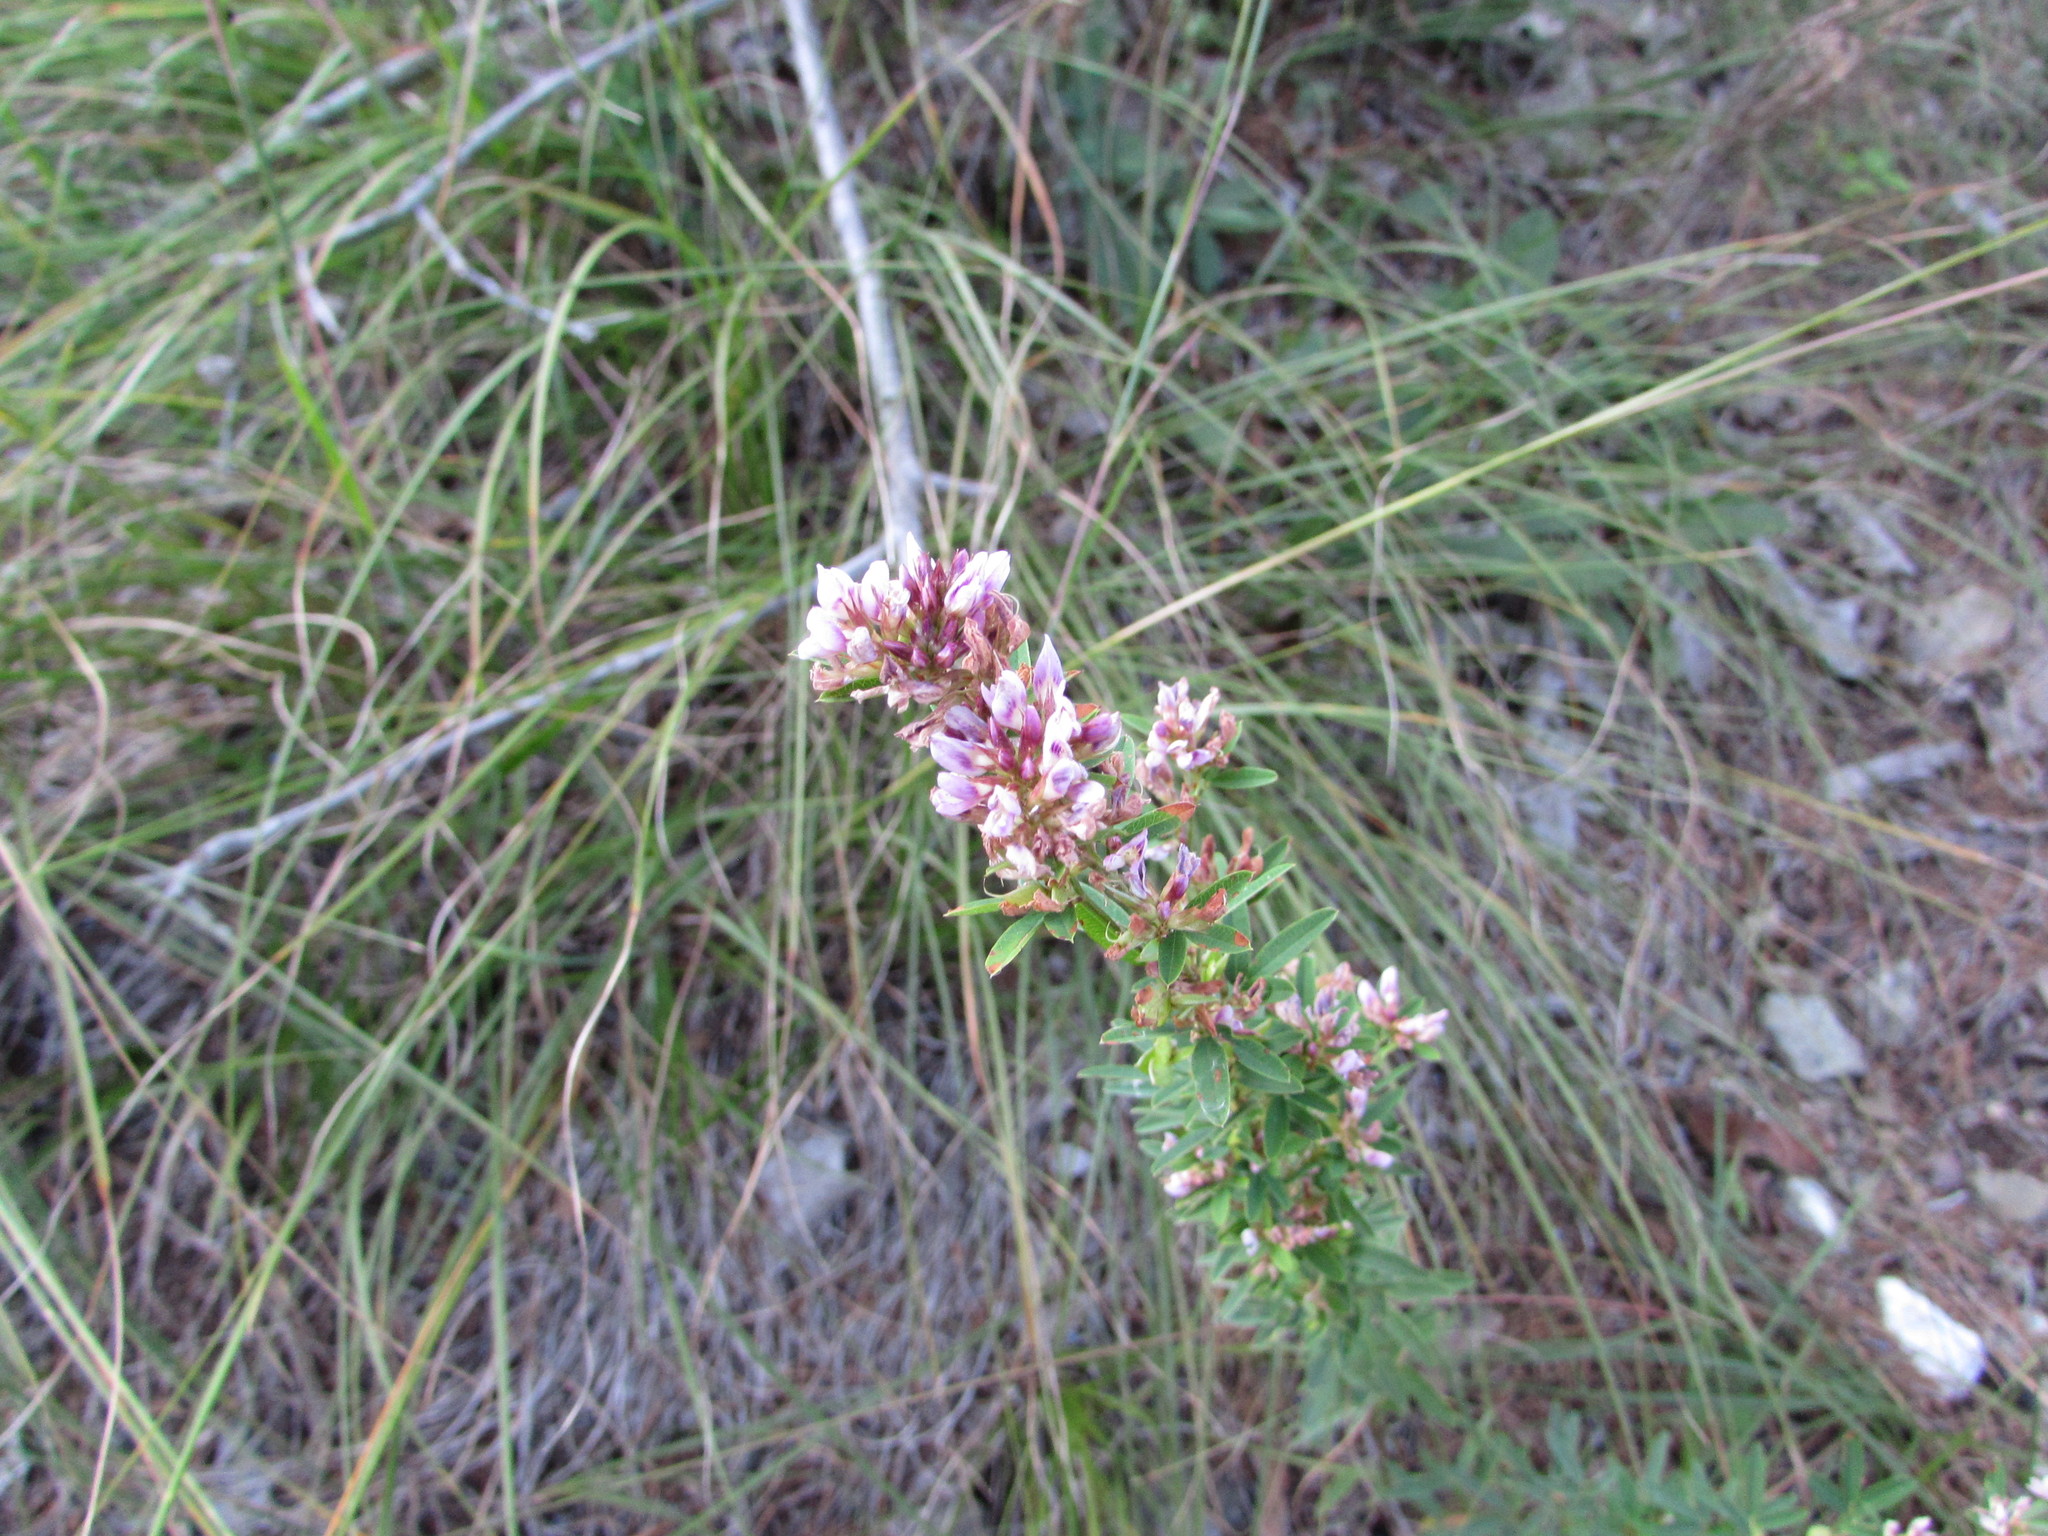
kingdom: Plantae
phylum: Tracheophyta
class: Magnoliopsida
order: Fabales
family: Fabaceae
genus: Lespedeza
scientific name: Lespedeza virginica
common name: Slender bush-clover
